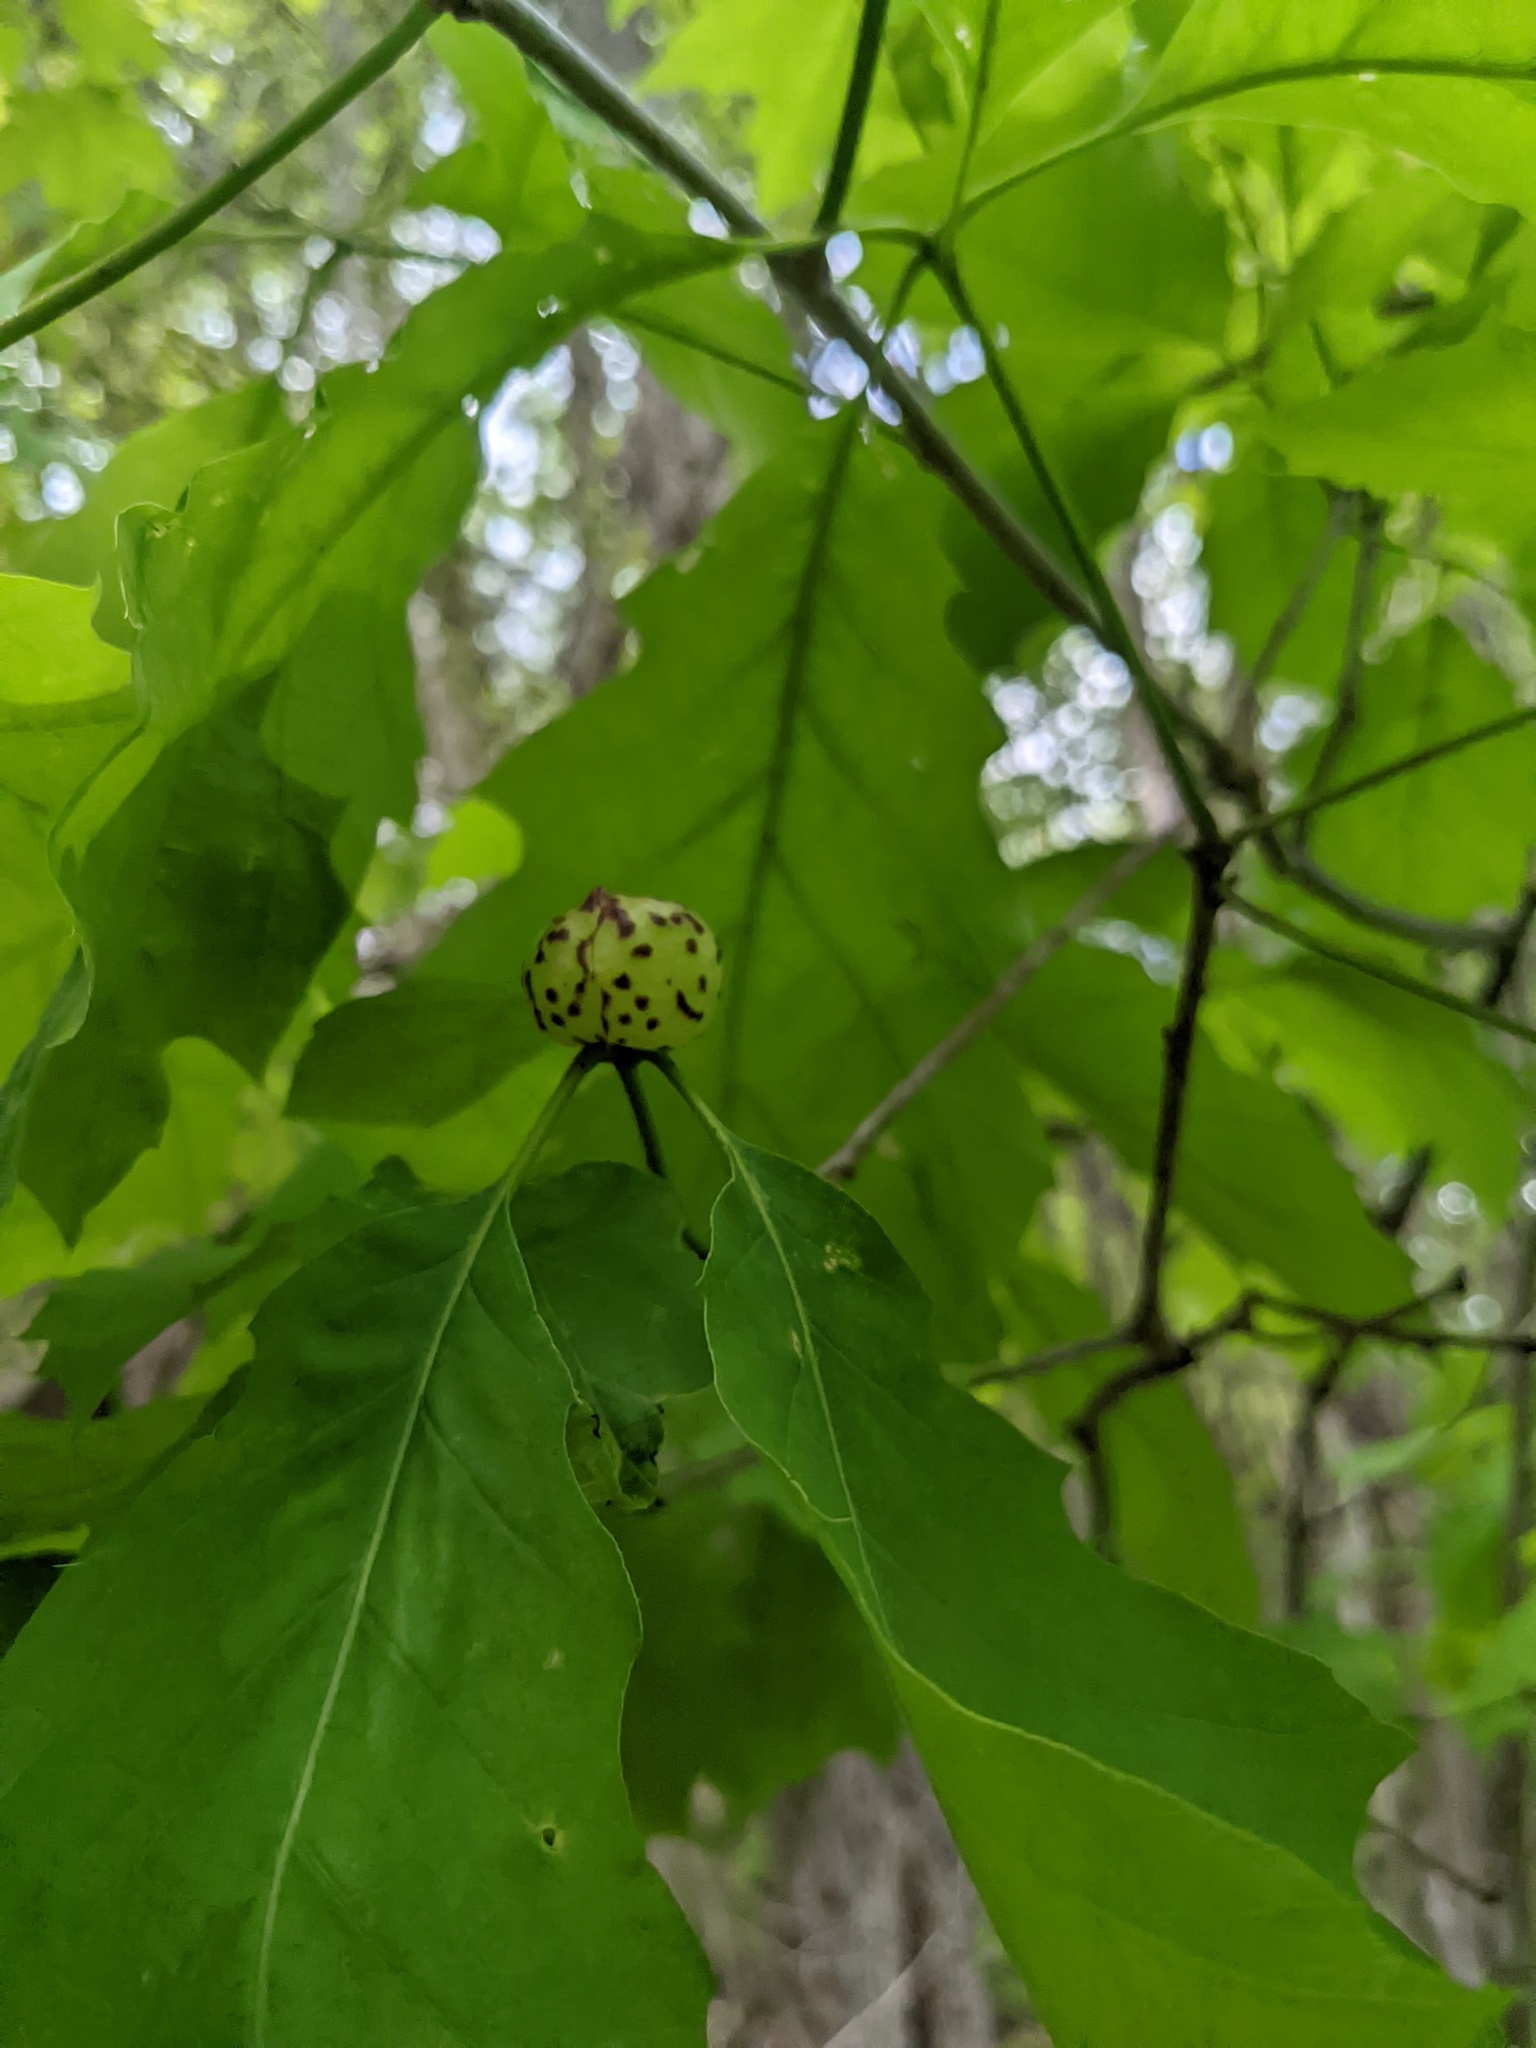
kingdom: Animalia
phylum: Arthropoda
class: Insecta
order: Hymenoptera
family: Cynipidae
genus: Amphibolips
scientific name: Amphibolips
